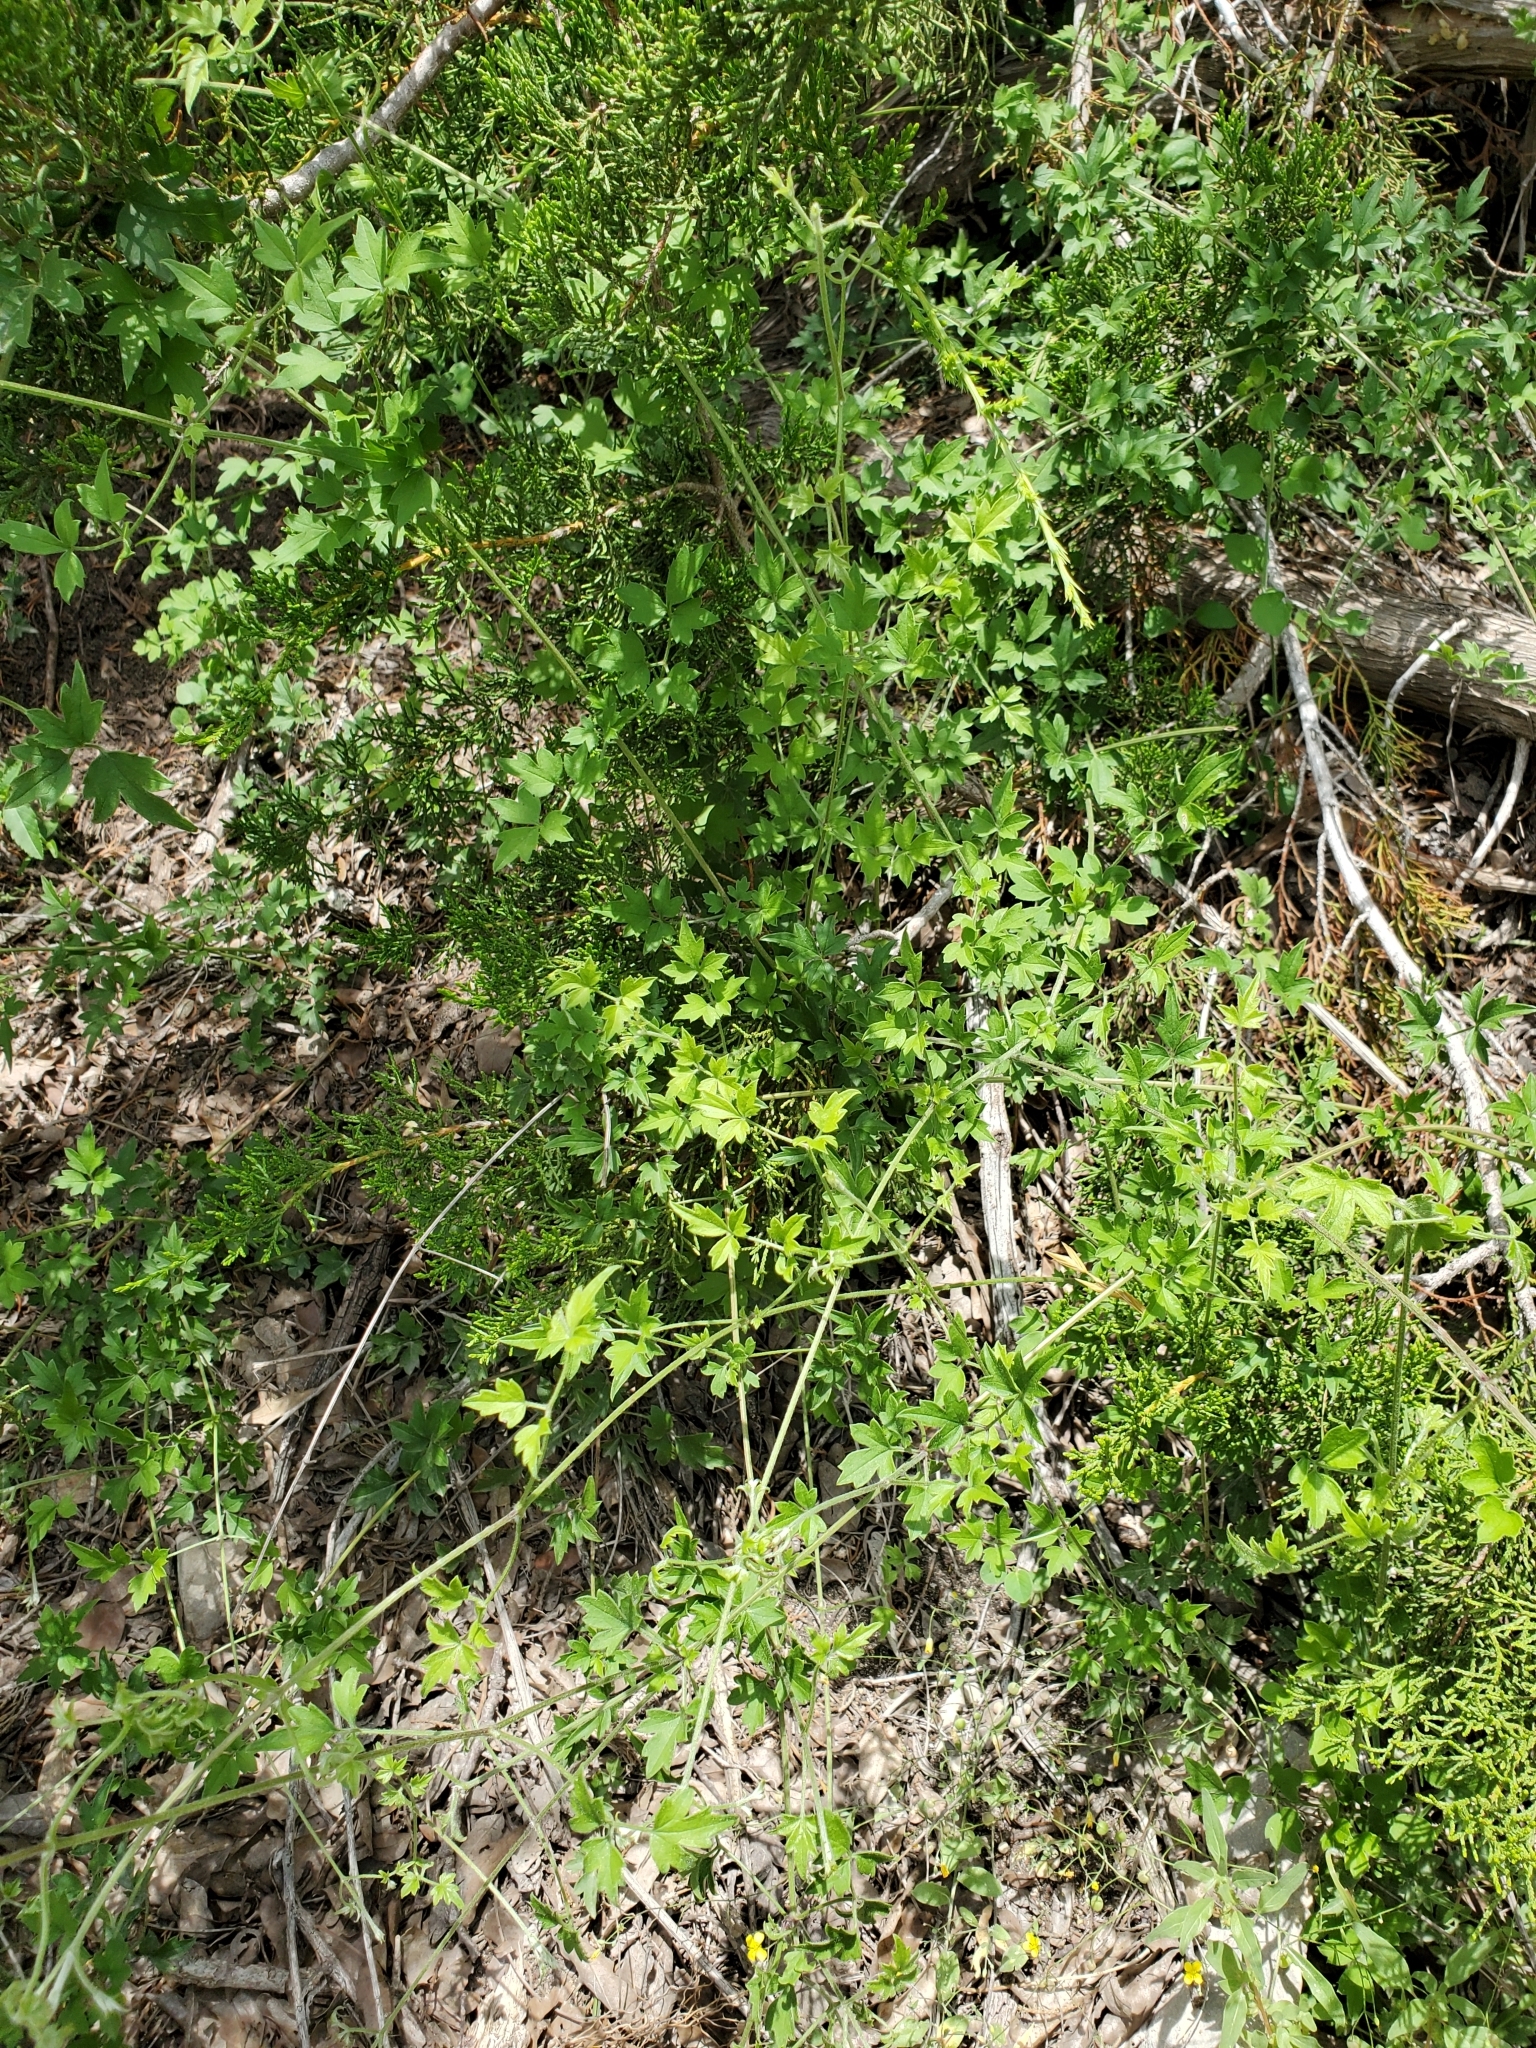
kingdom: Plantae
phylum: Tracheophyta
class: Magnoliopsida
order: Ranunculales
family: Ranunculaceae
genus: Clematis
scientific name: Clematis drummondii
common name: Texas virgin's bower
